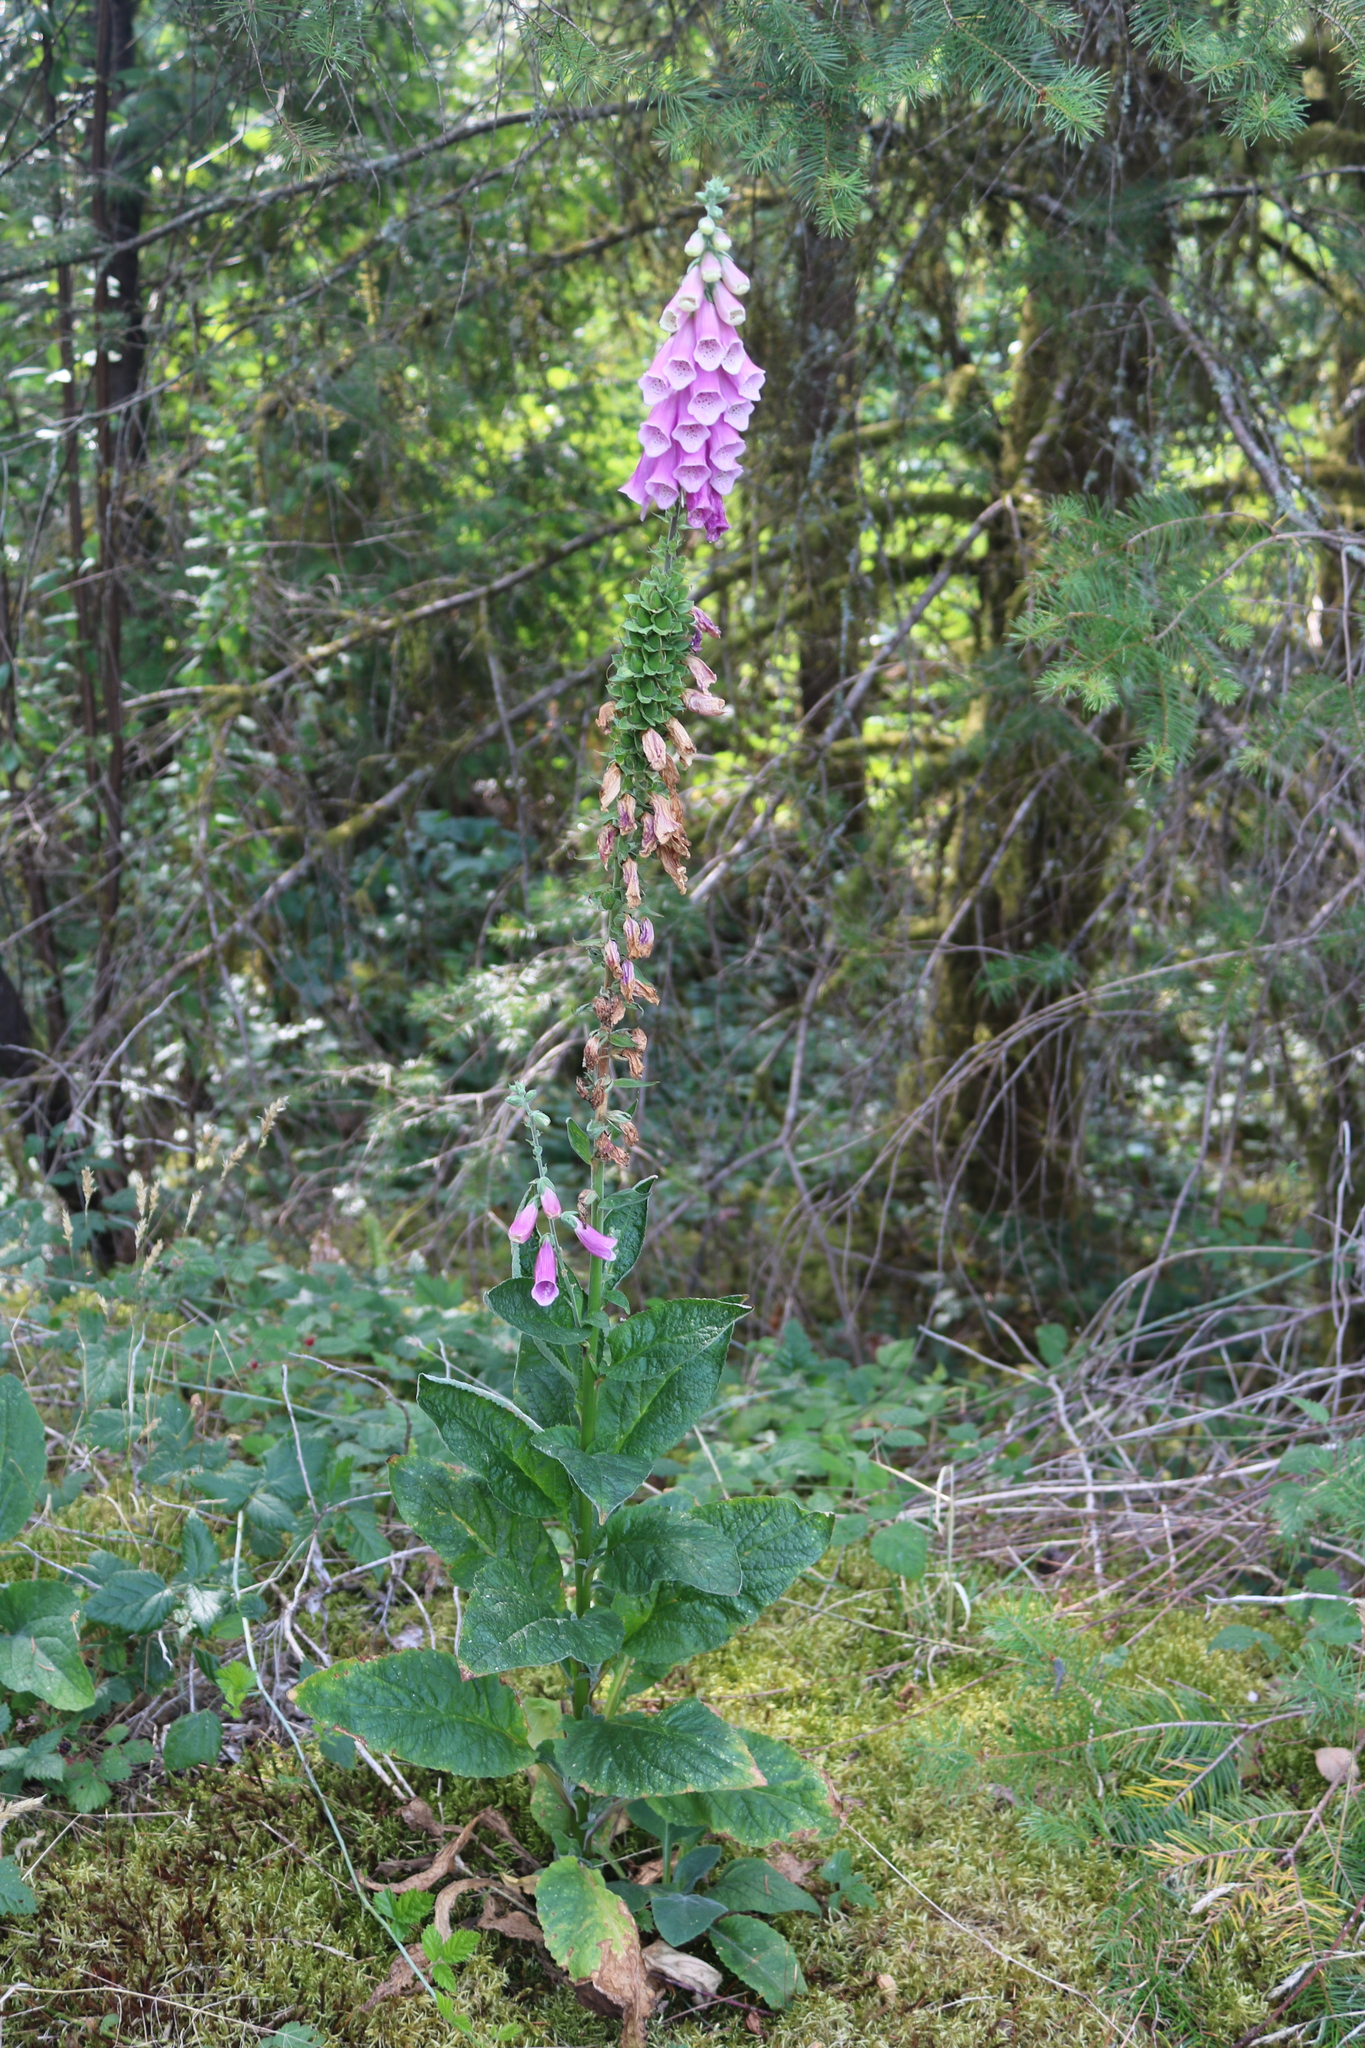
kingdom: Plantae
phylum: Tracheophyta
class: Magnoliopsida
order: Lamiales
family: Plantaginaceae
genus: Digitalis
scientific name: Digitalis purpurea
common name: Foxglove
